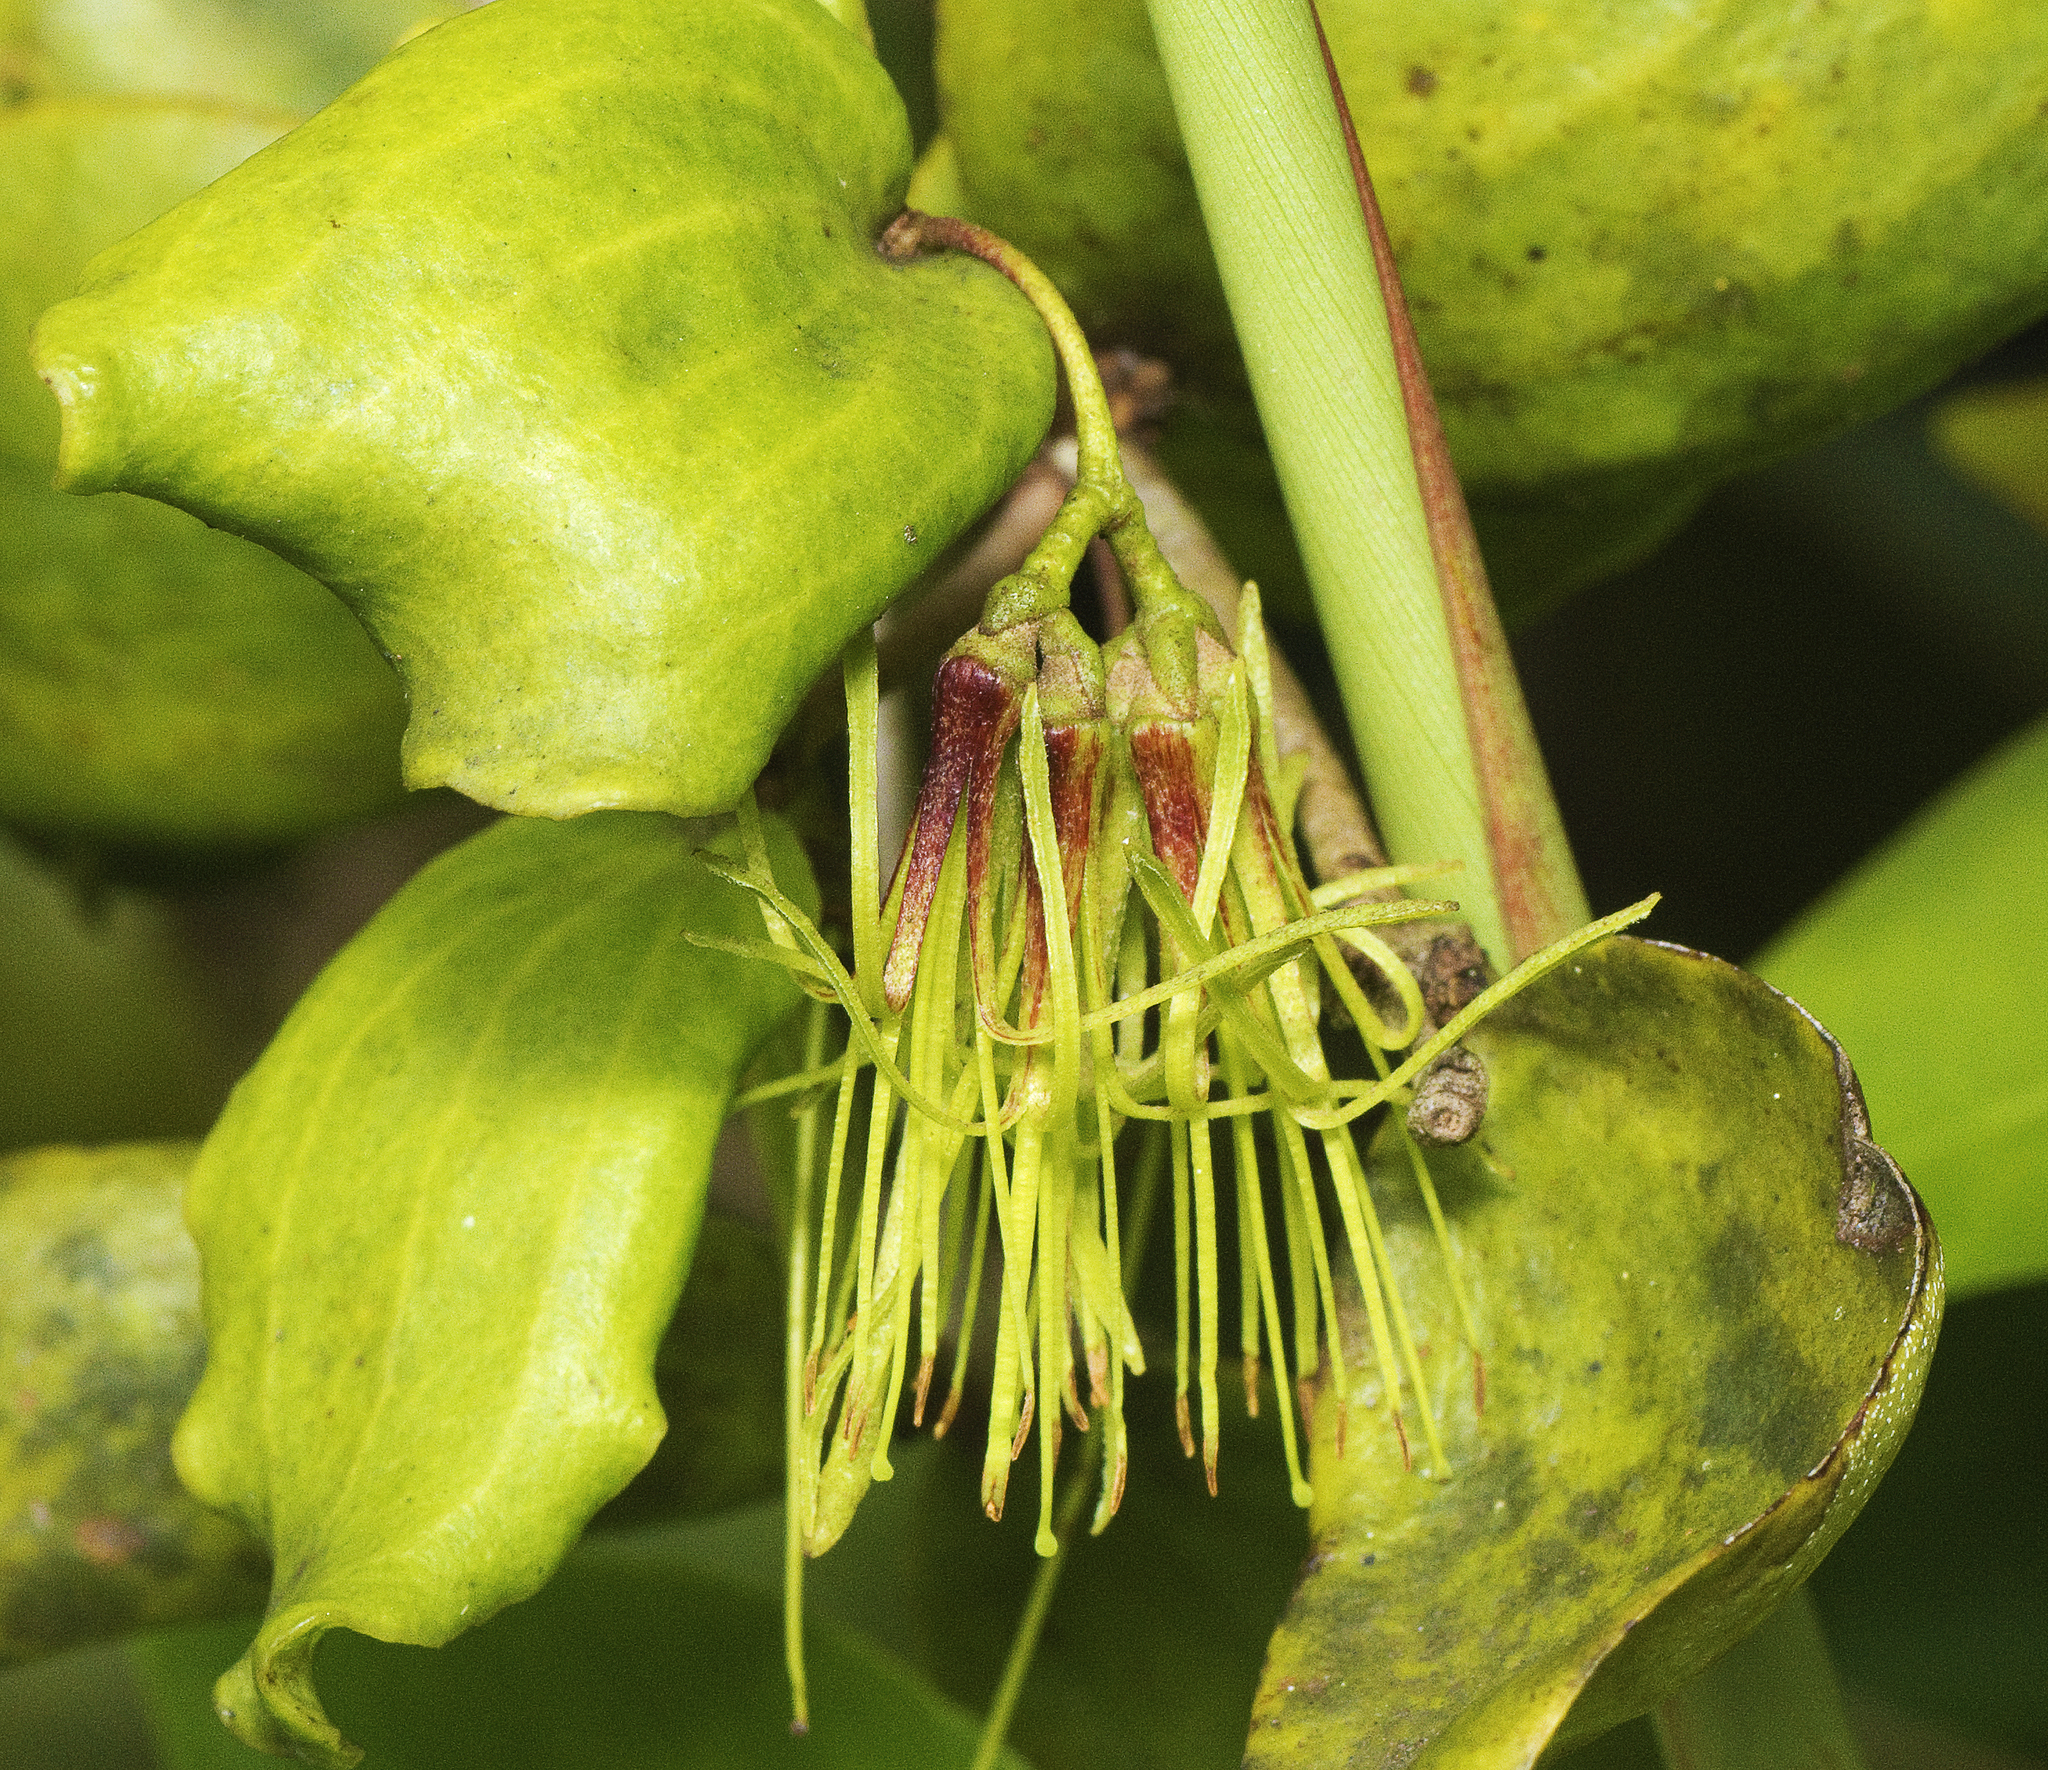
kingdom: Plantae
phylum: Tracheophyta
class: Magnoliopsida
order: Santalales
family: Loranthaceae
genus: Amyema
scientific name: Amyema glabra
